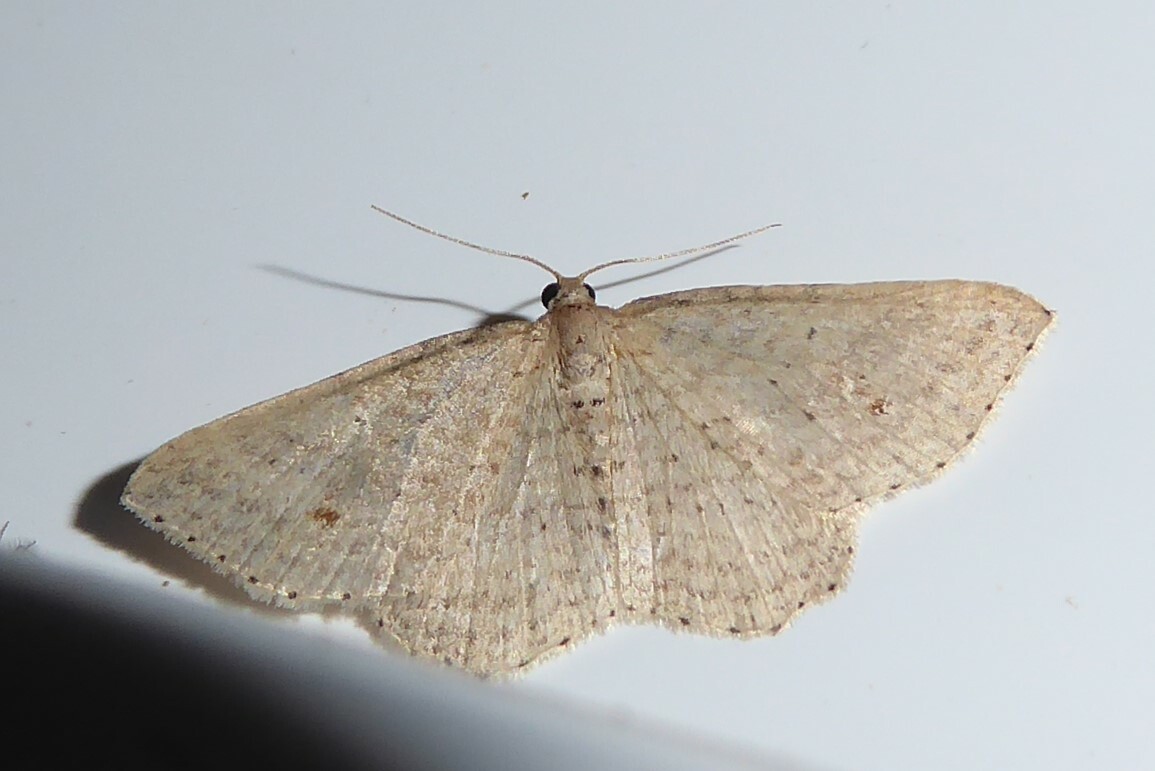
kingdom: Animalia
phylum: Arthropoda
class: Insecta
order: Lepidoptera
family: Geometridae
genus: Epicyme
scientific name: Epicyme rubropunctaria
